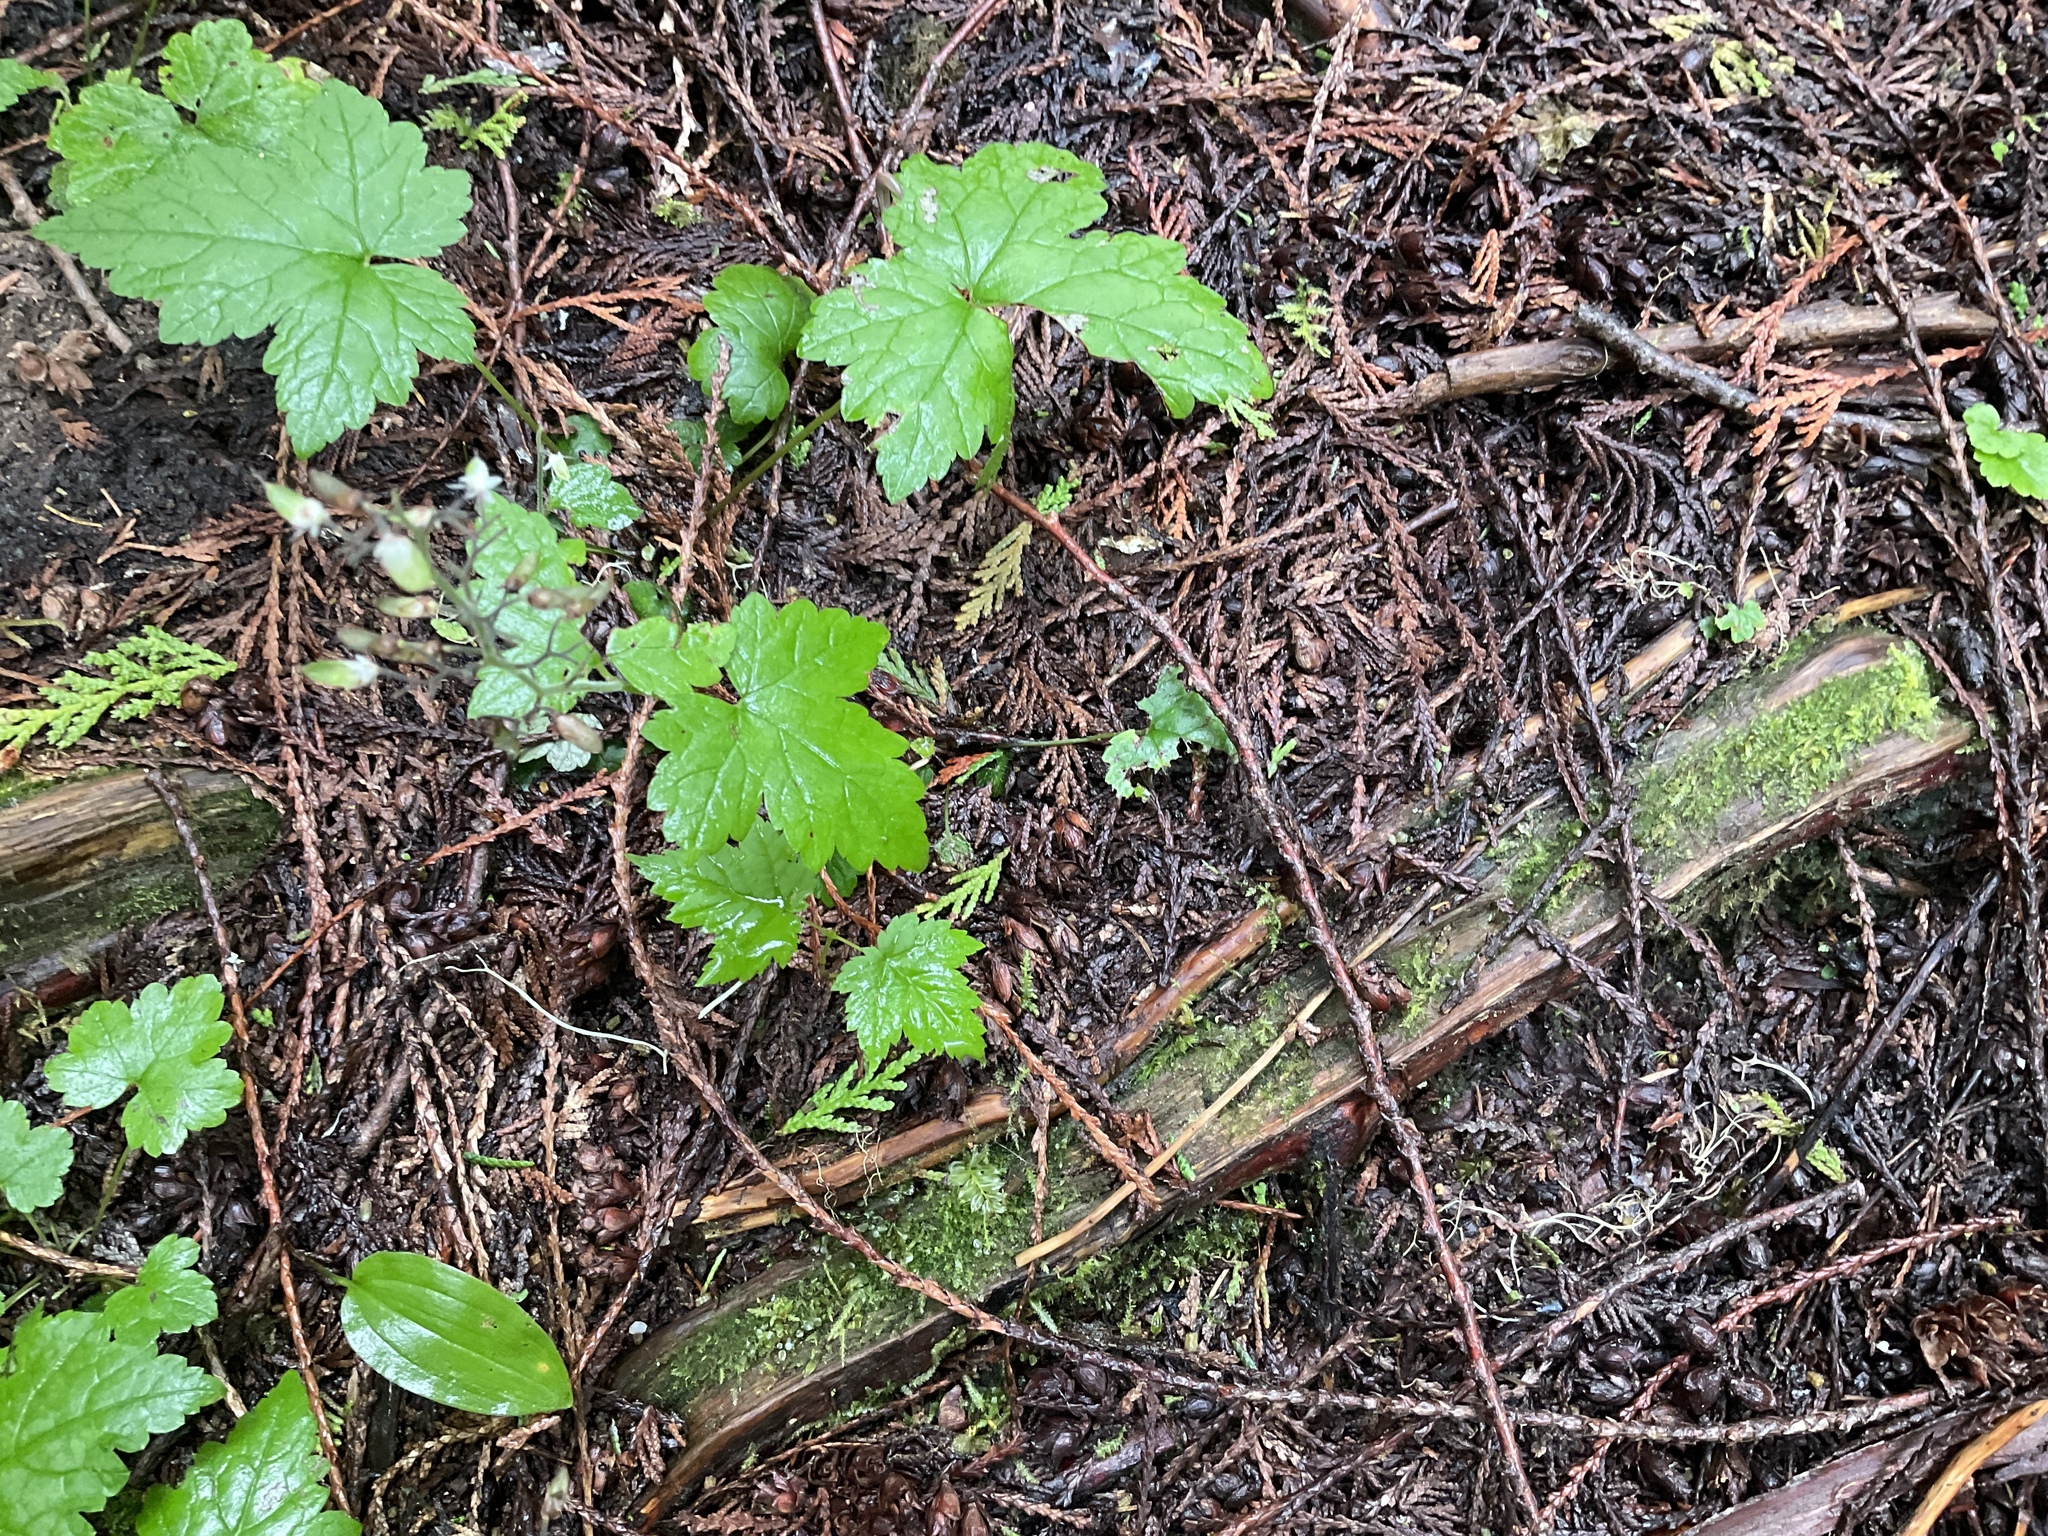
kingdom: Plantae
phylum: Tracheophyta
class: Magnoliopsida
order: Saxifragales
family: Saxifragaceae
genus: Tiarella
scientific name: Tiarella trifoliata
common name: Sugar-scoop
